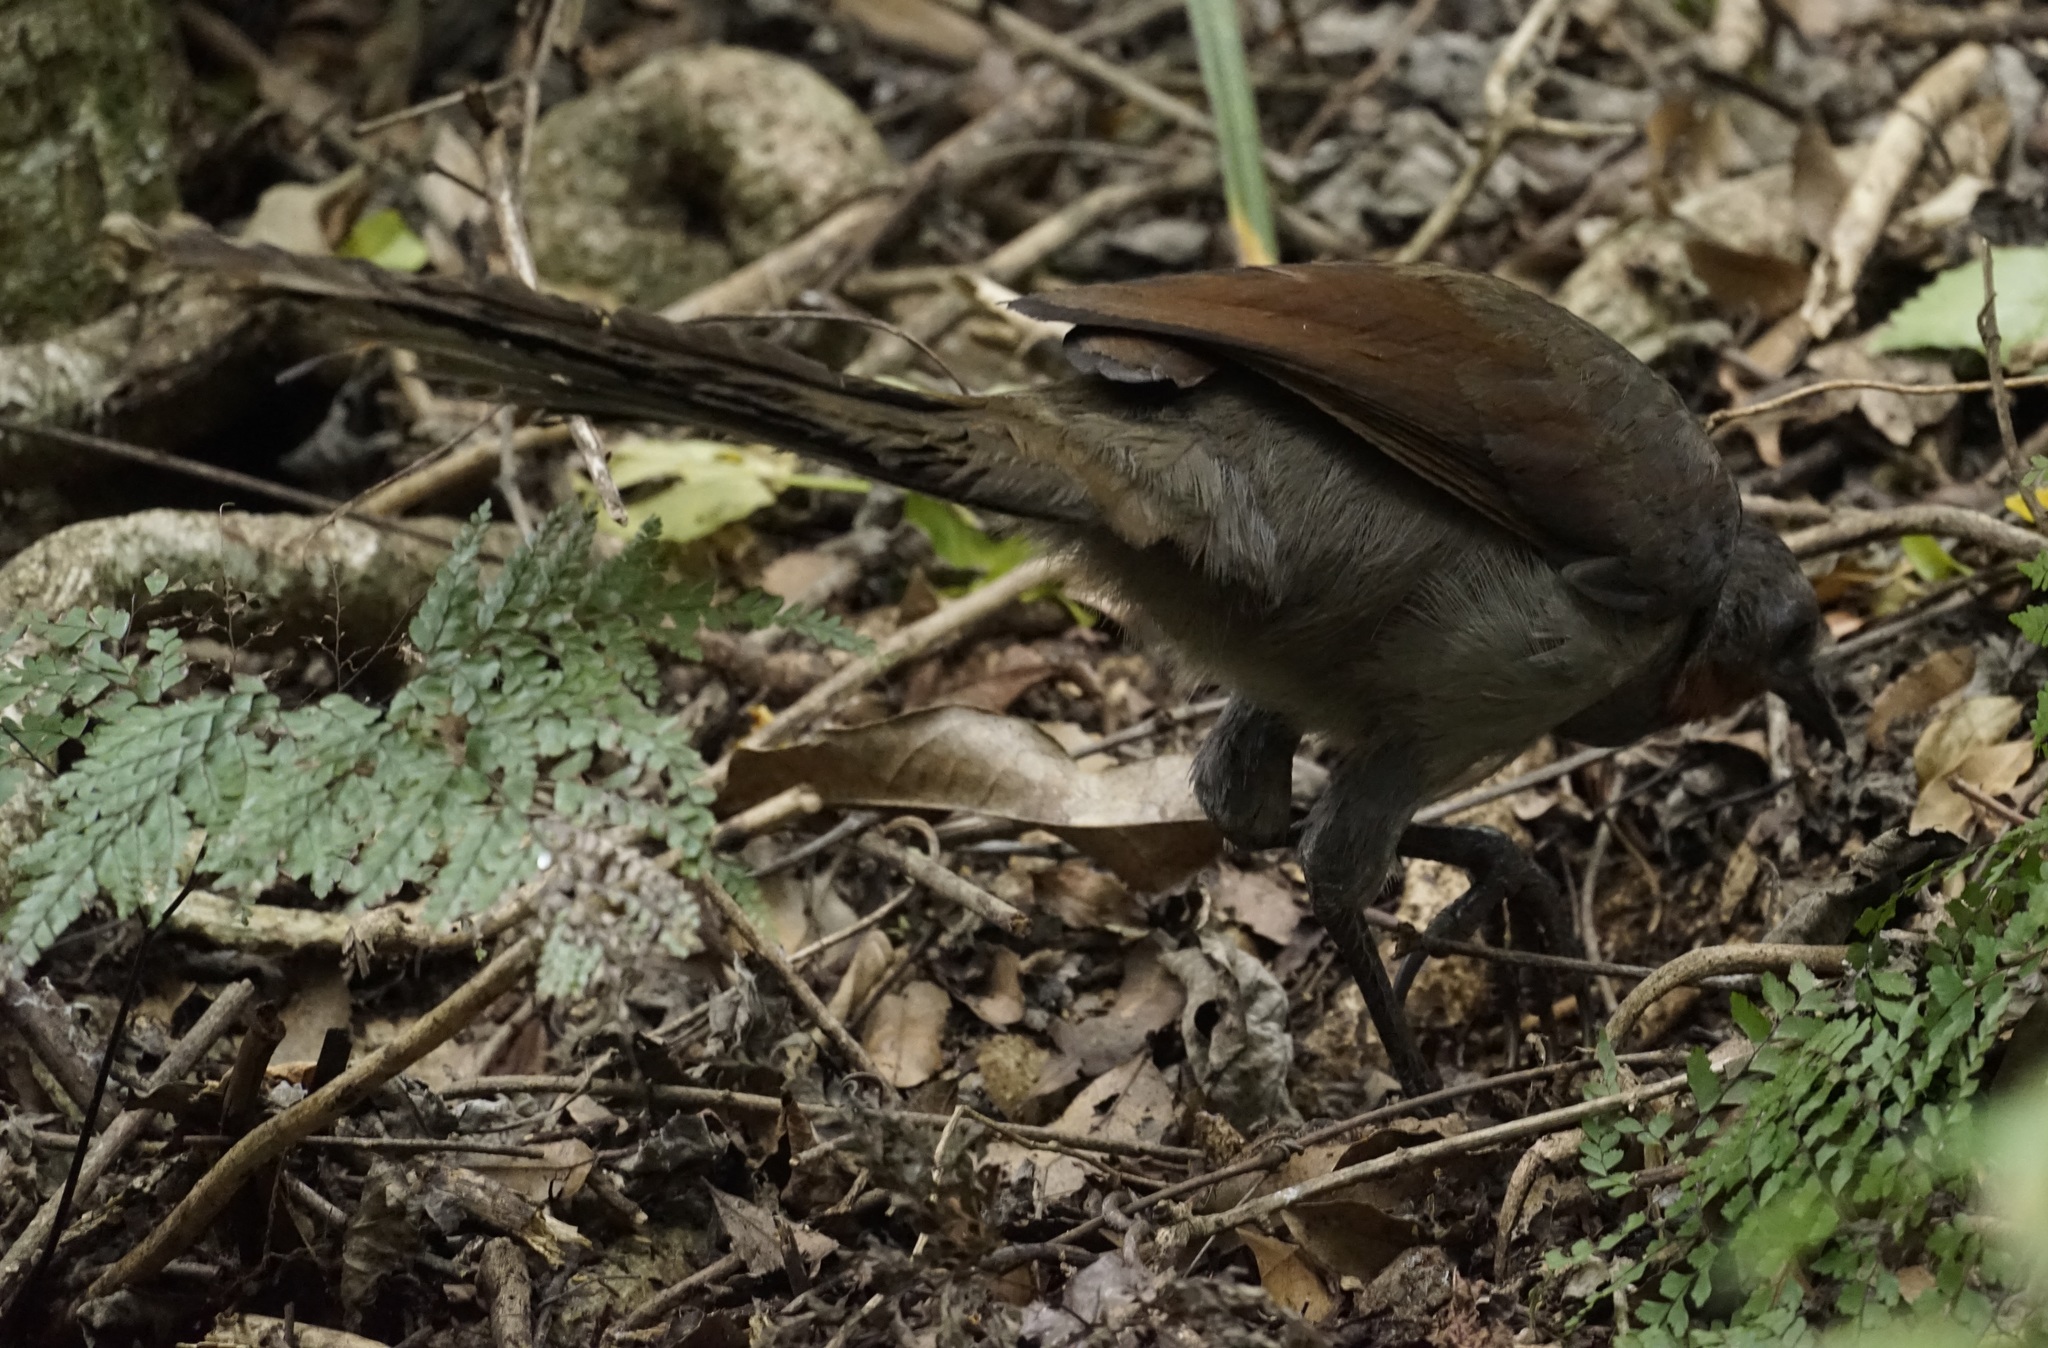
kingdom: Animalia
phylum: Chordata
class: Aves
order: Passeriformes
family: Menuridae
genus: Menura
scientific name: Menura novaehollandiae
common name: Superb lyrebird
